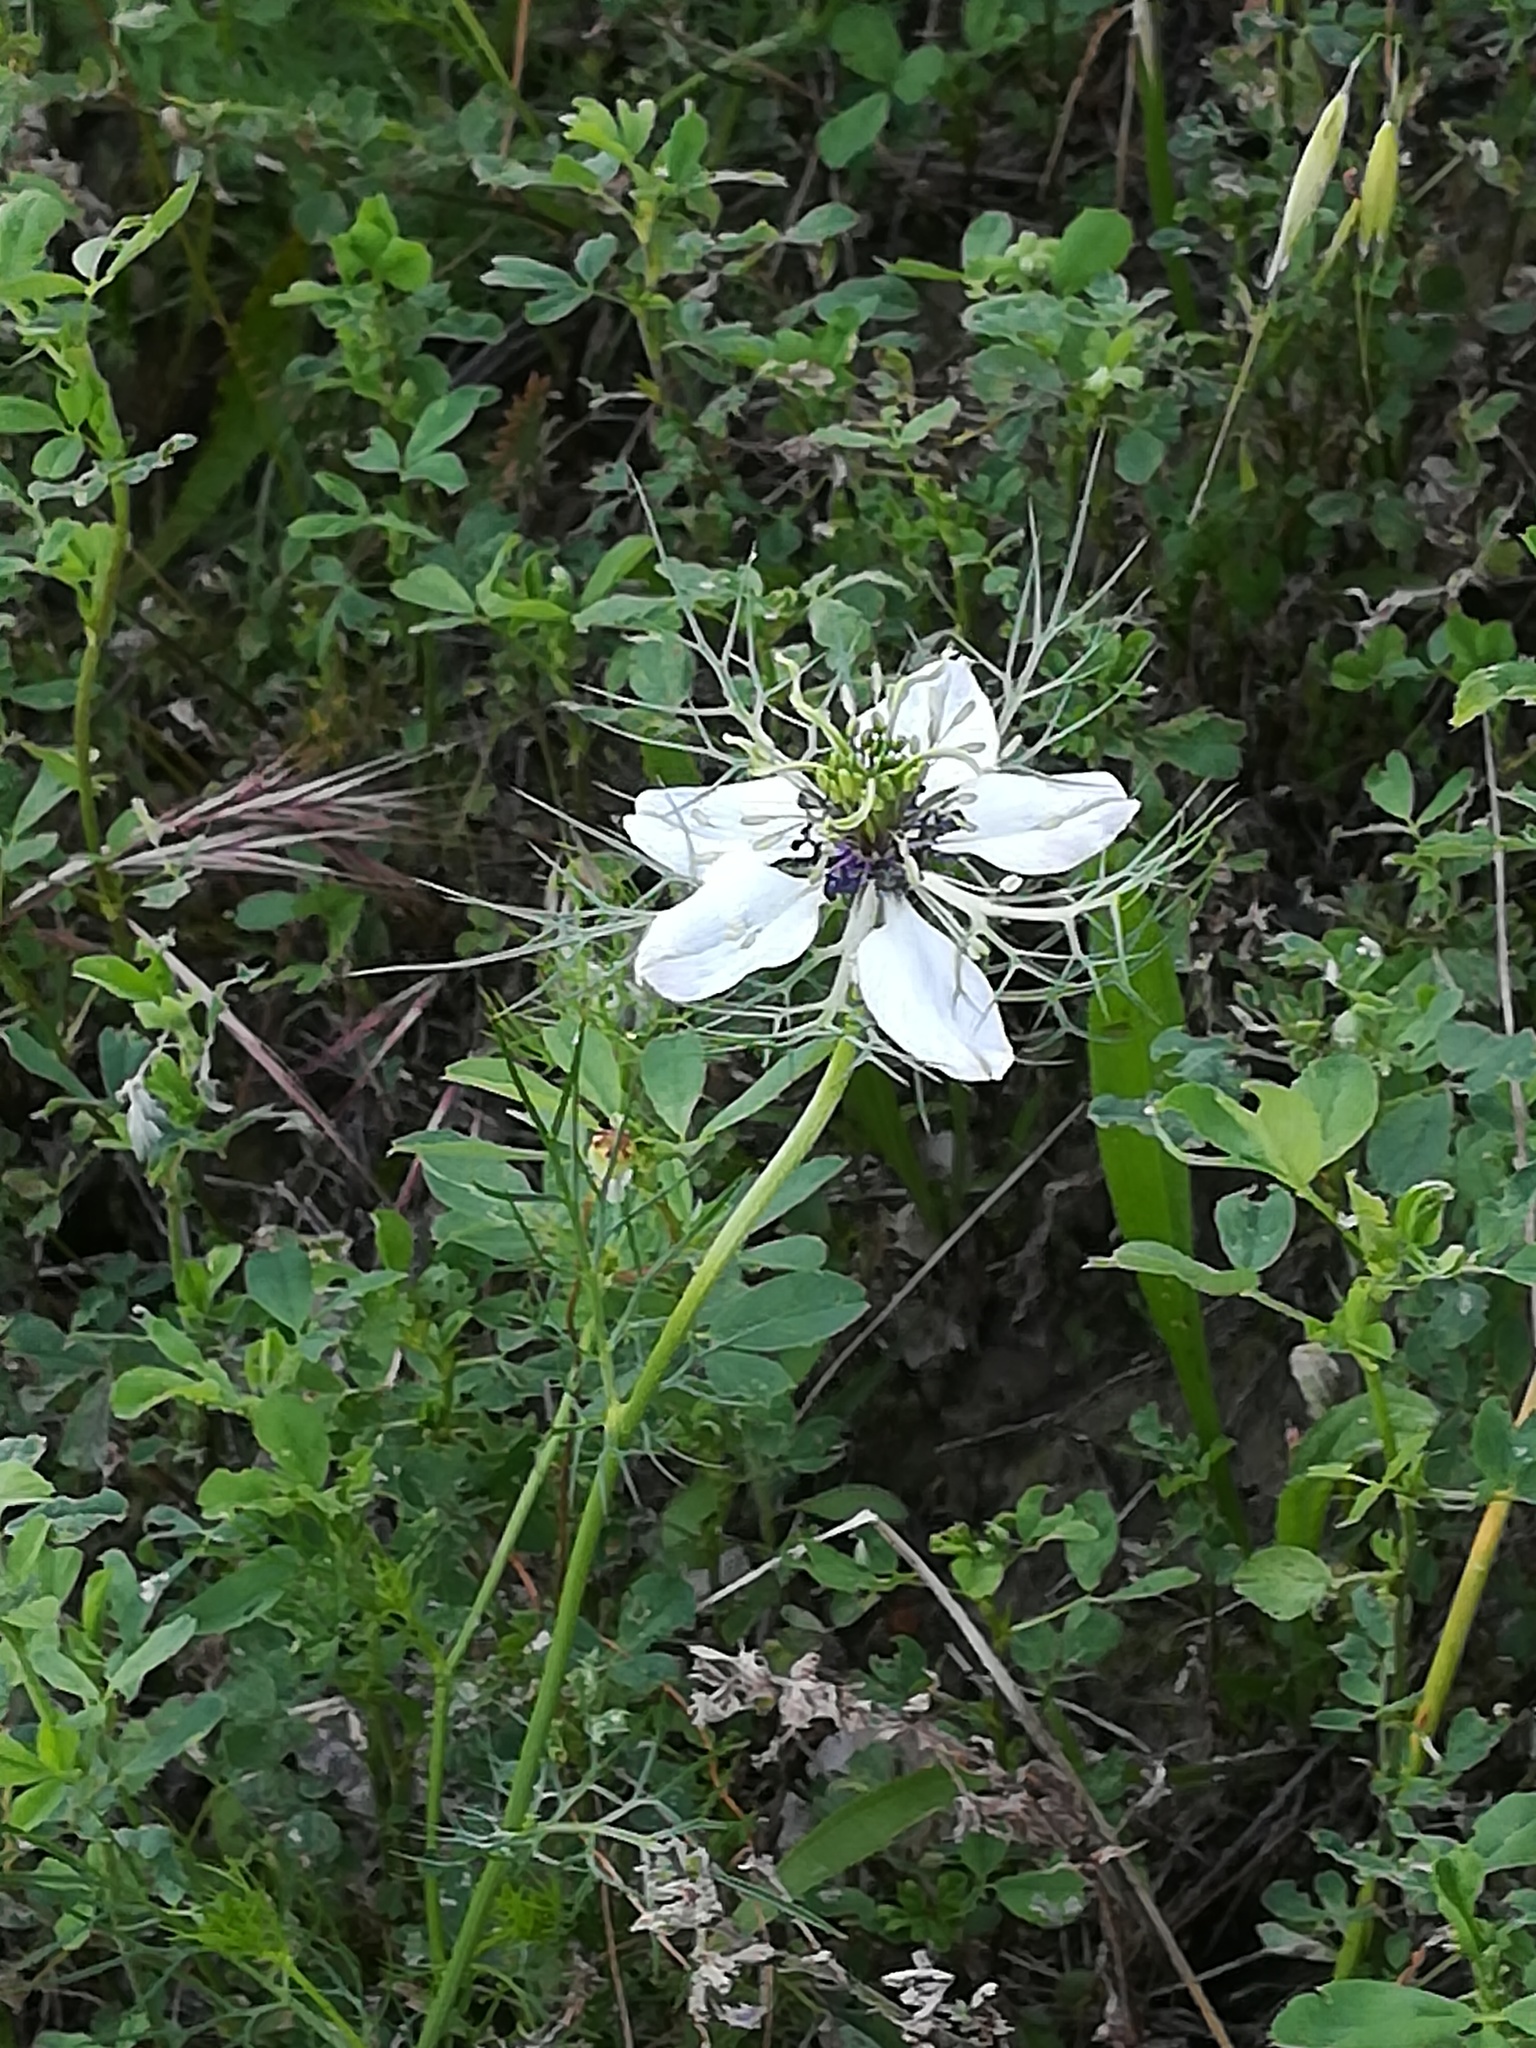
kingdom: Plantae
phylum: Tracheophyta
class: Magnoliopsida
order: Ranunculales
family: Ranunculaceae
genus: Nigella
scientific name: Nigella damascena
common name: Love-in-a-mist
